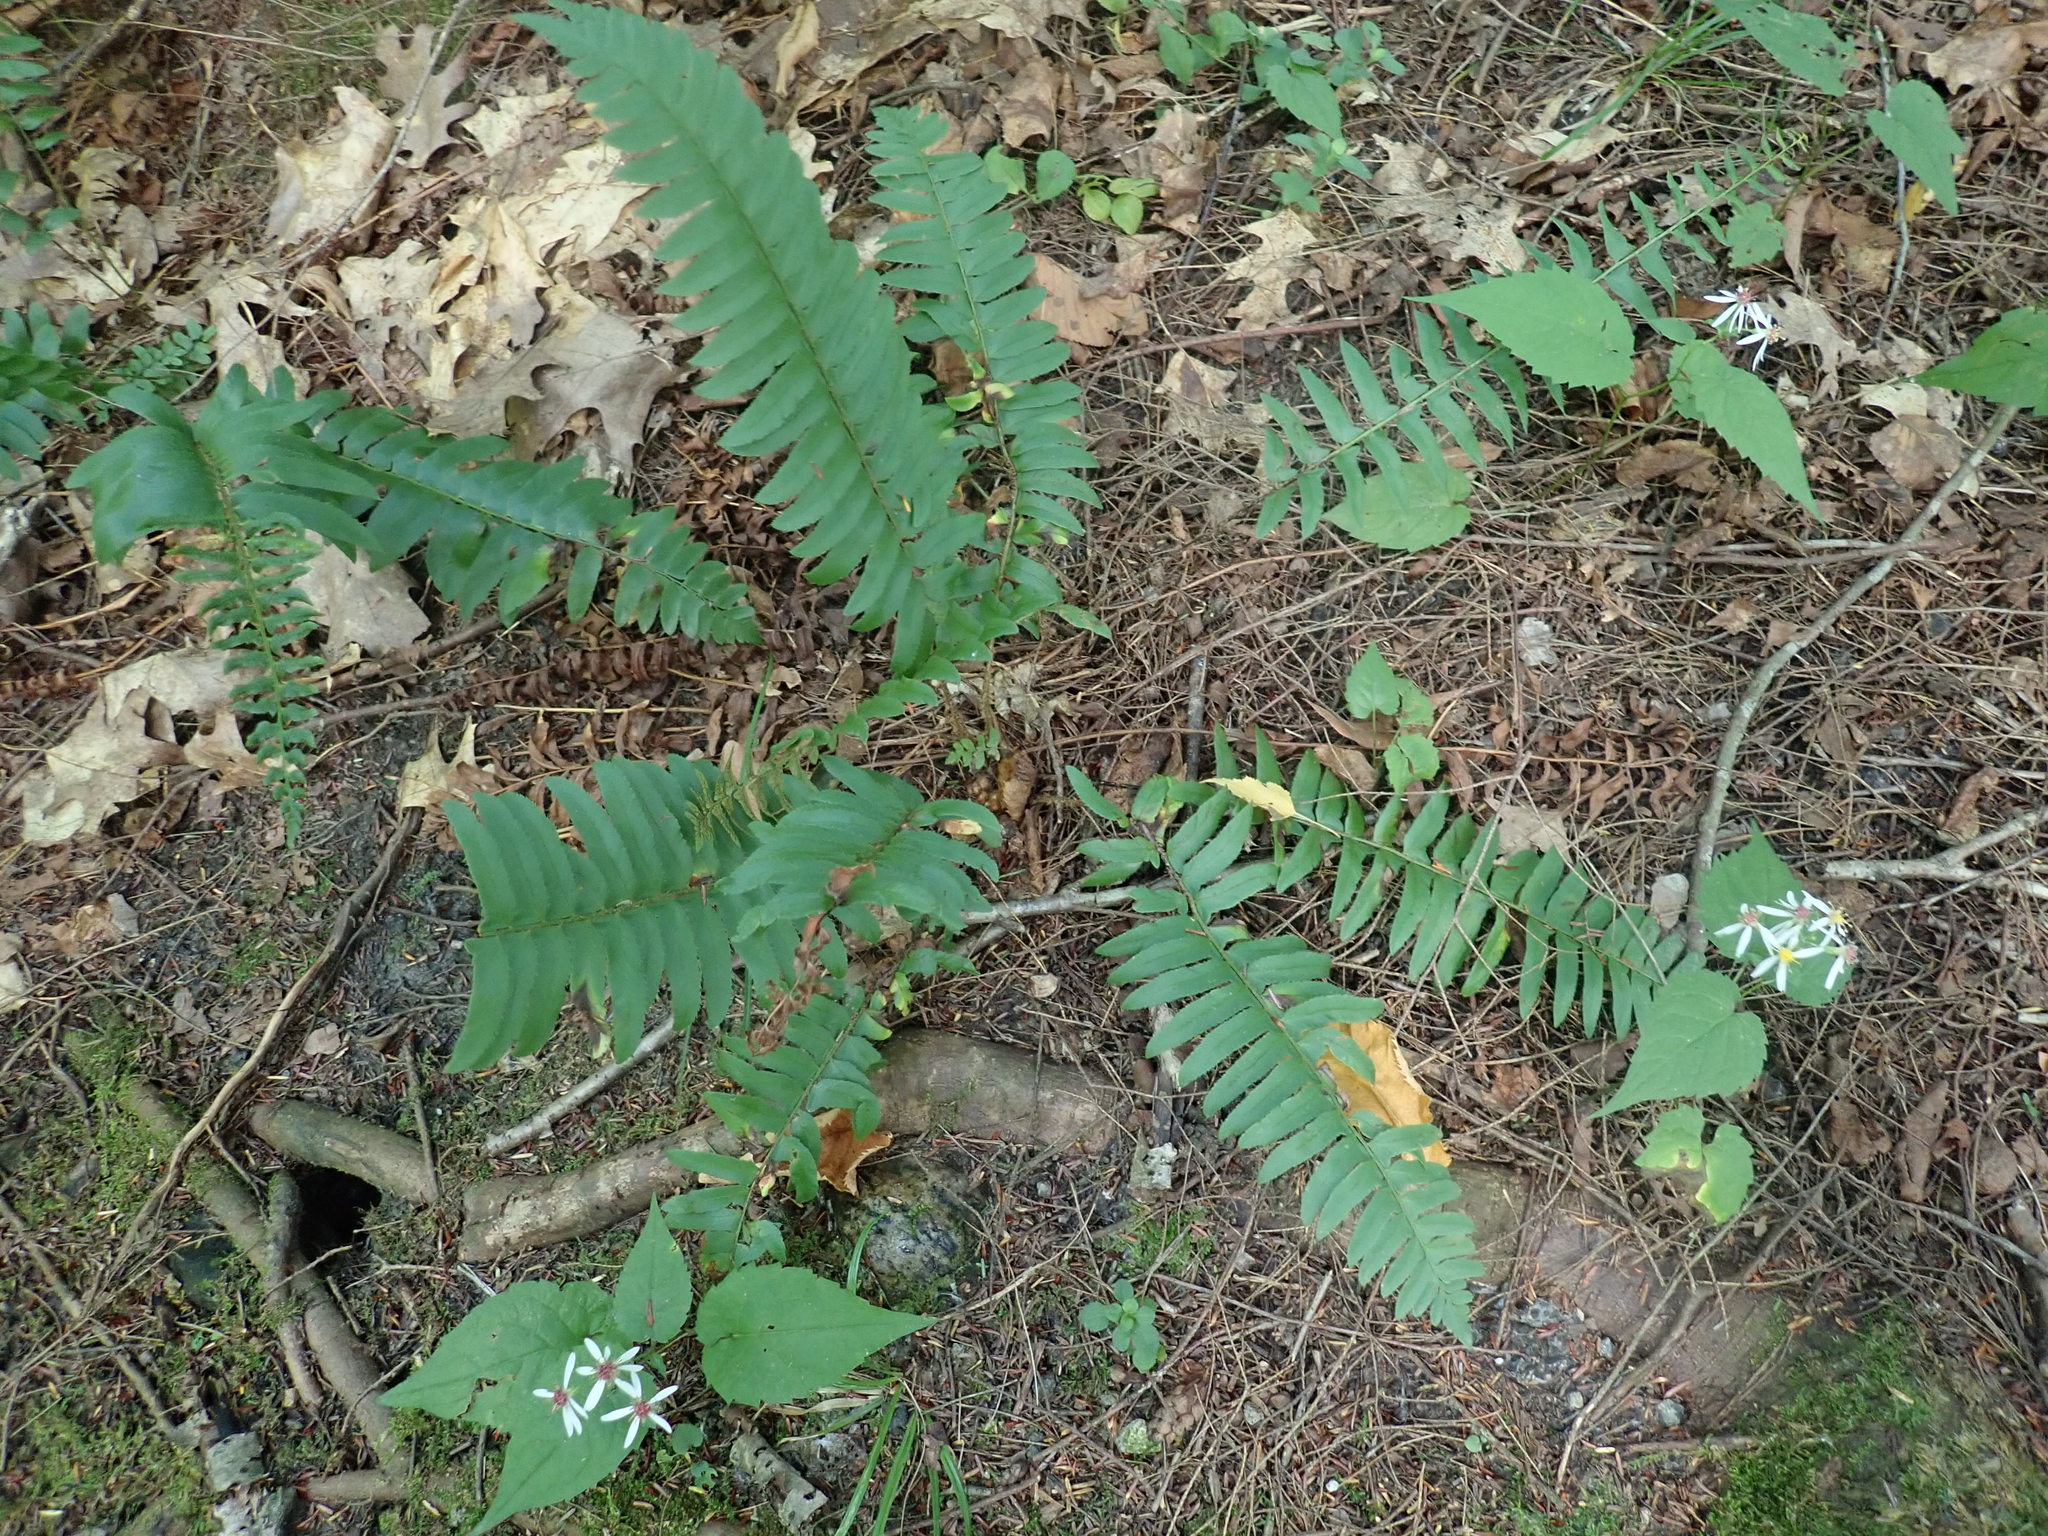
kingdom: Plantae
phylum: Tracheophyta
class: Polypodiopsida
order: Polypodiales
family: Dryopteridaceae
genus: Polystichum
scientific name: Polystichum acrostichoides
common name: Christmas fern
